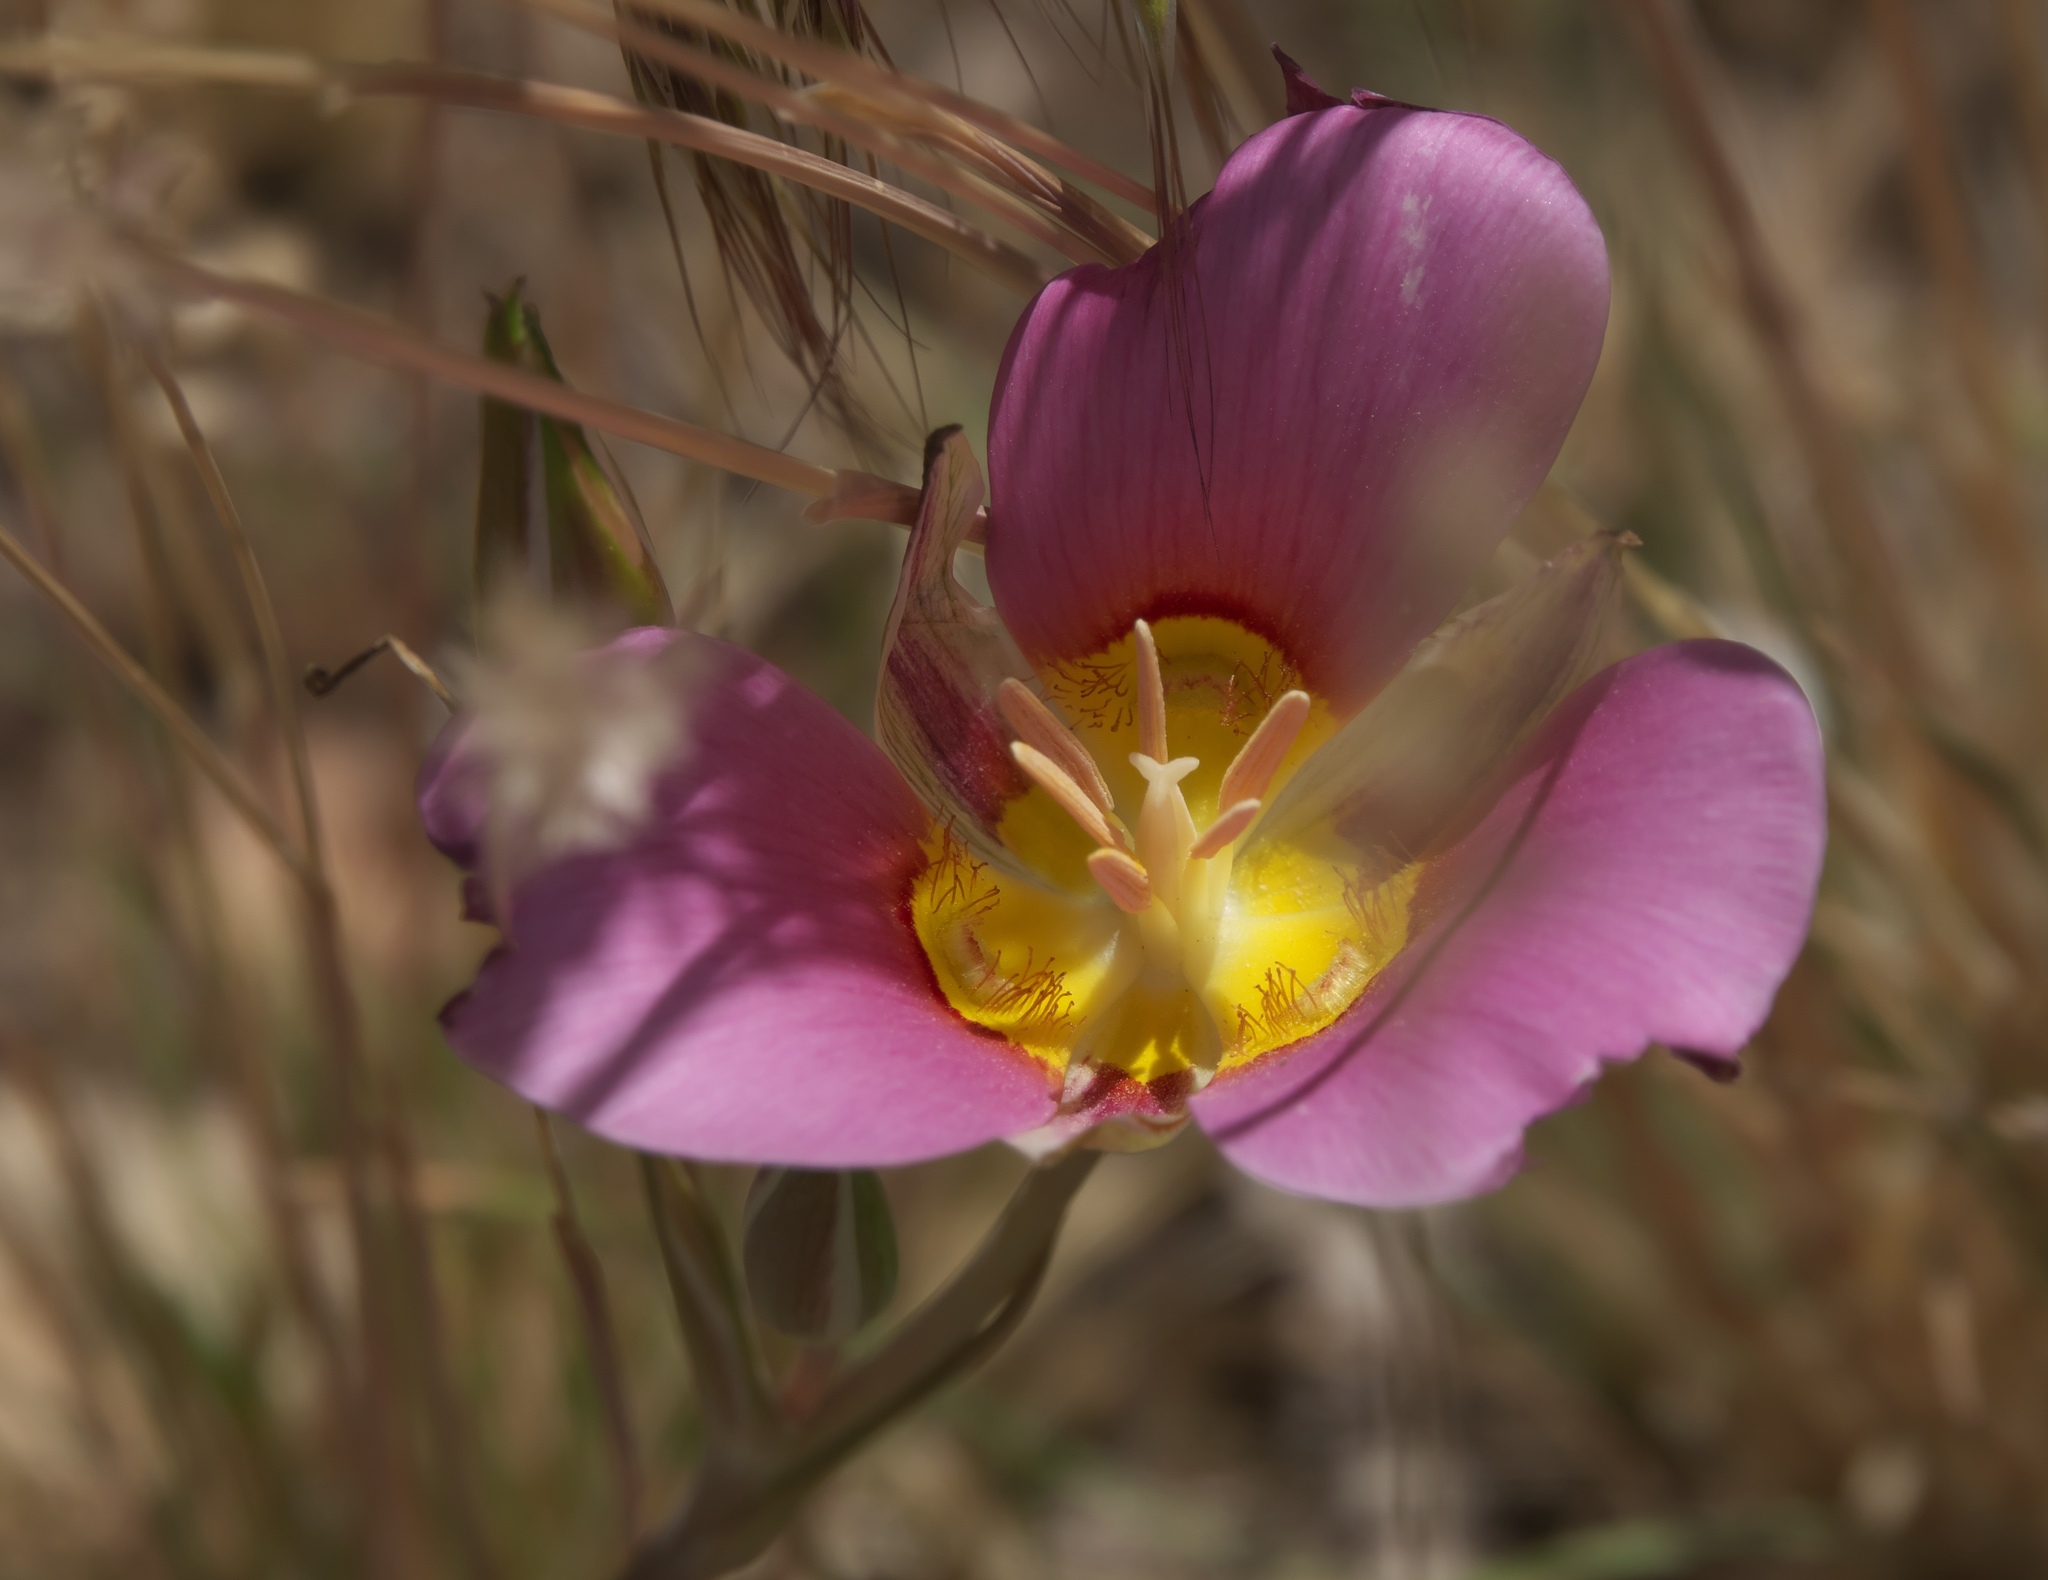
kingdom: Plantae
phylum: Tracheophyta
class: Liliopsida
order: Liliales
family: Liliaceae
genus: Calochortus
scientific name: Calochortus nuttallii
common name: Sego-lily
